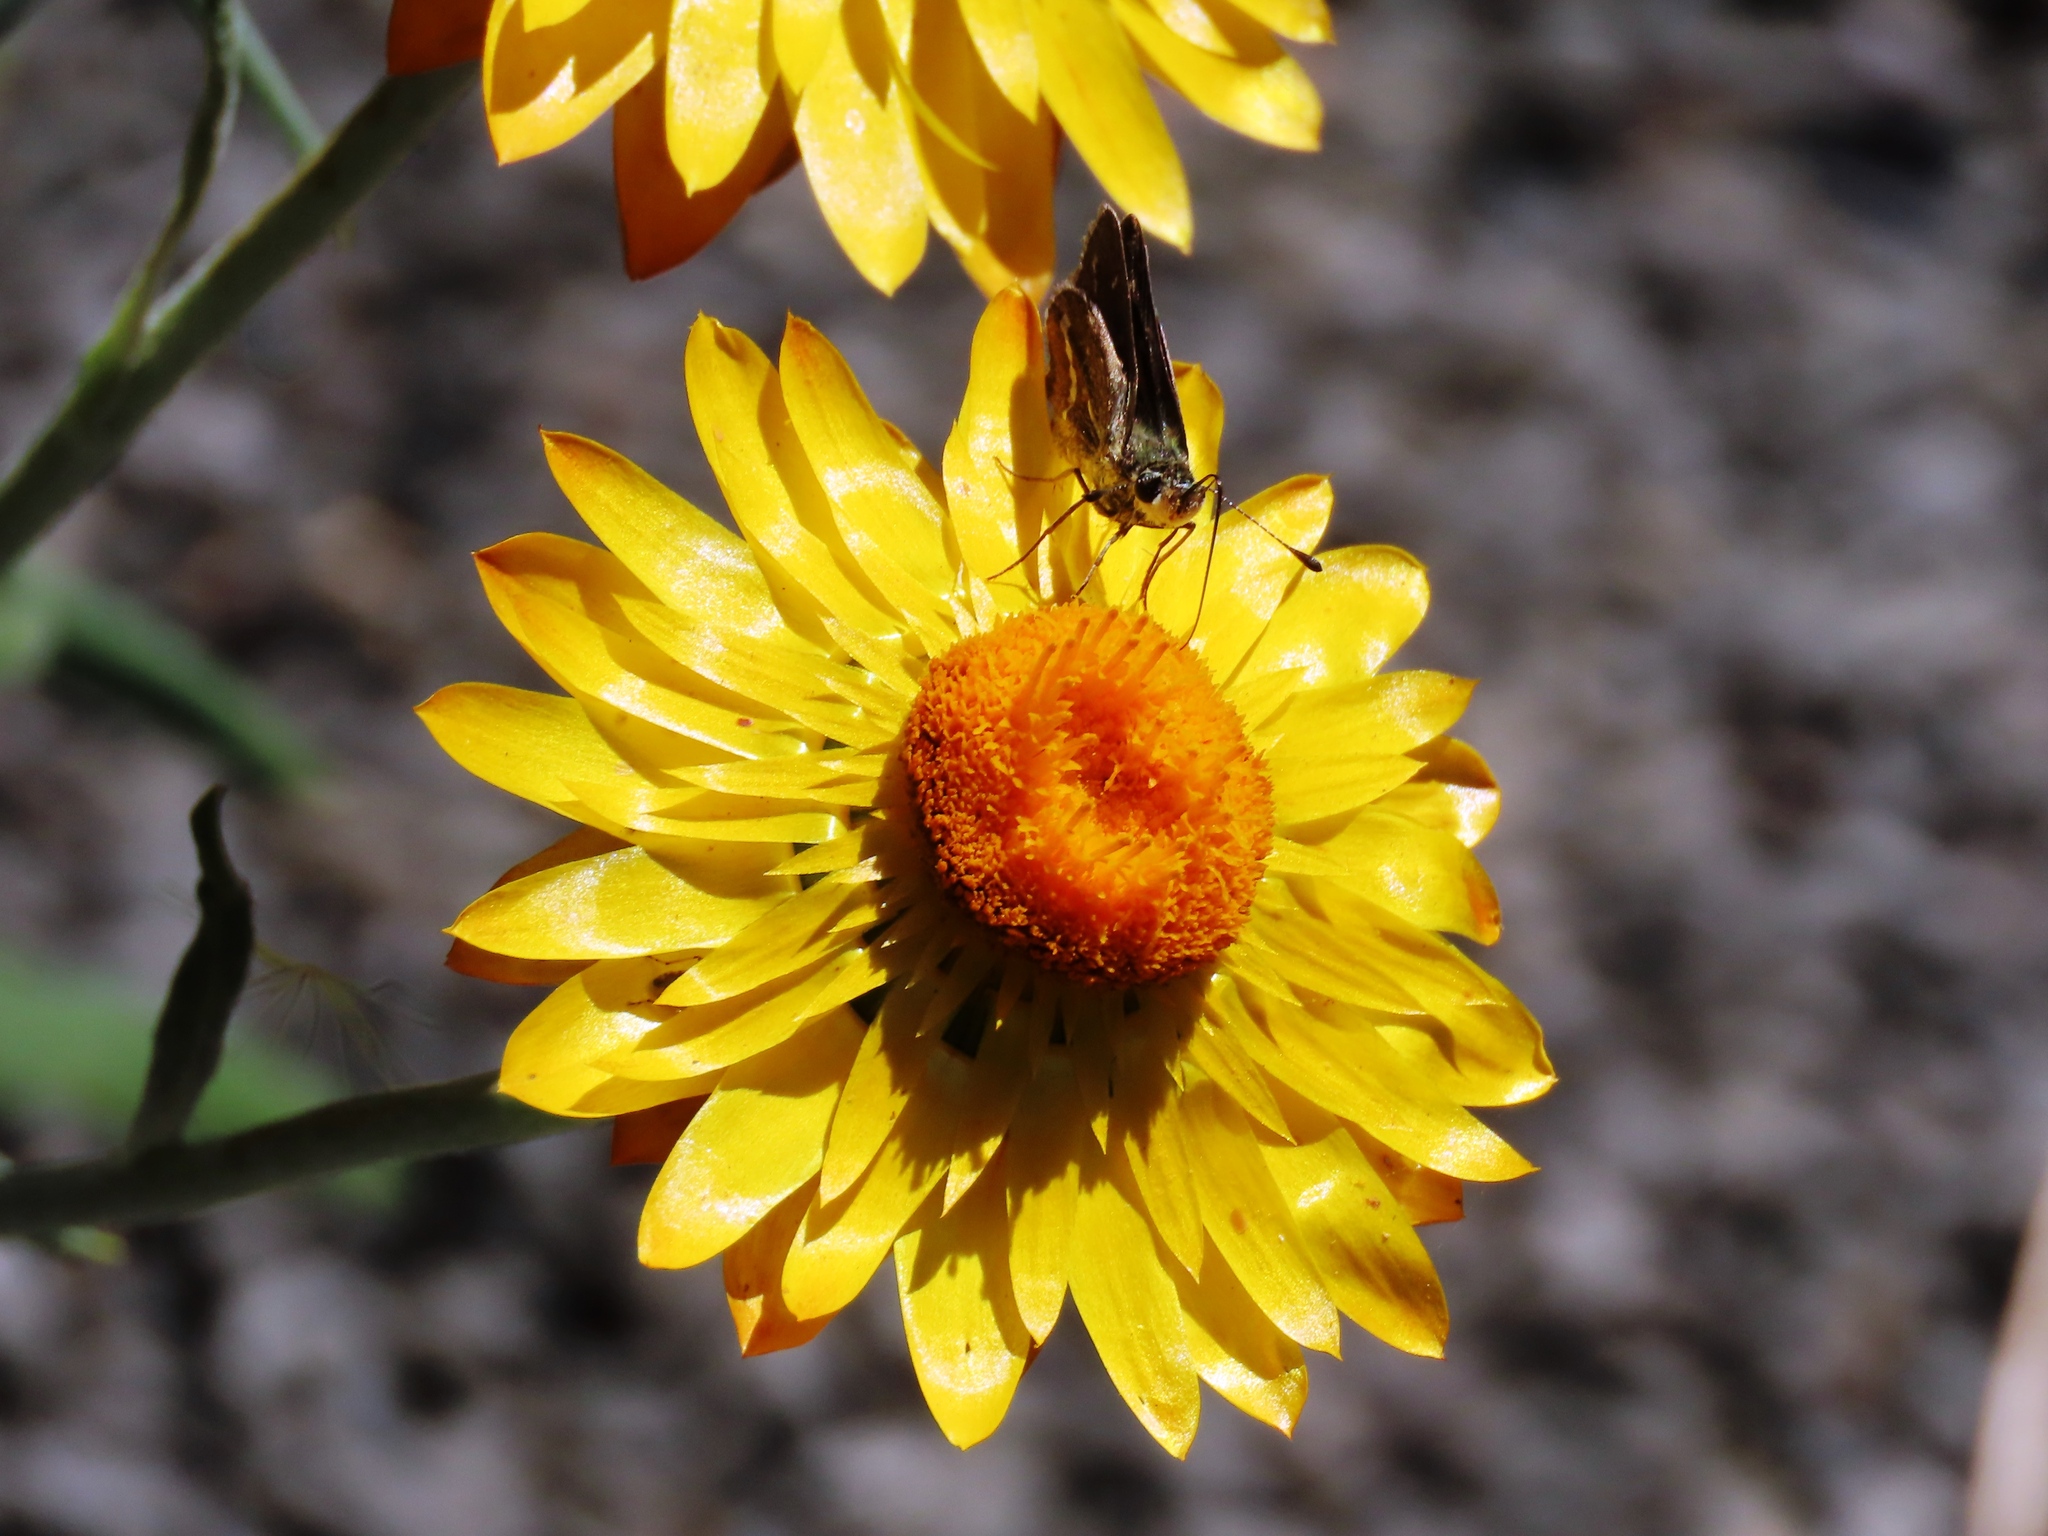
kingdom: Animalia
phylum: Arthropoda
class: Insecta
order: Lepidoptera
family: Hesperiidae
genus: Taractrocera
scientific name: Taractrocera papyria
